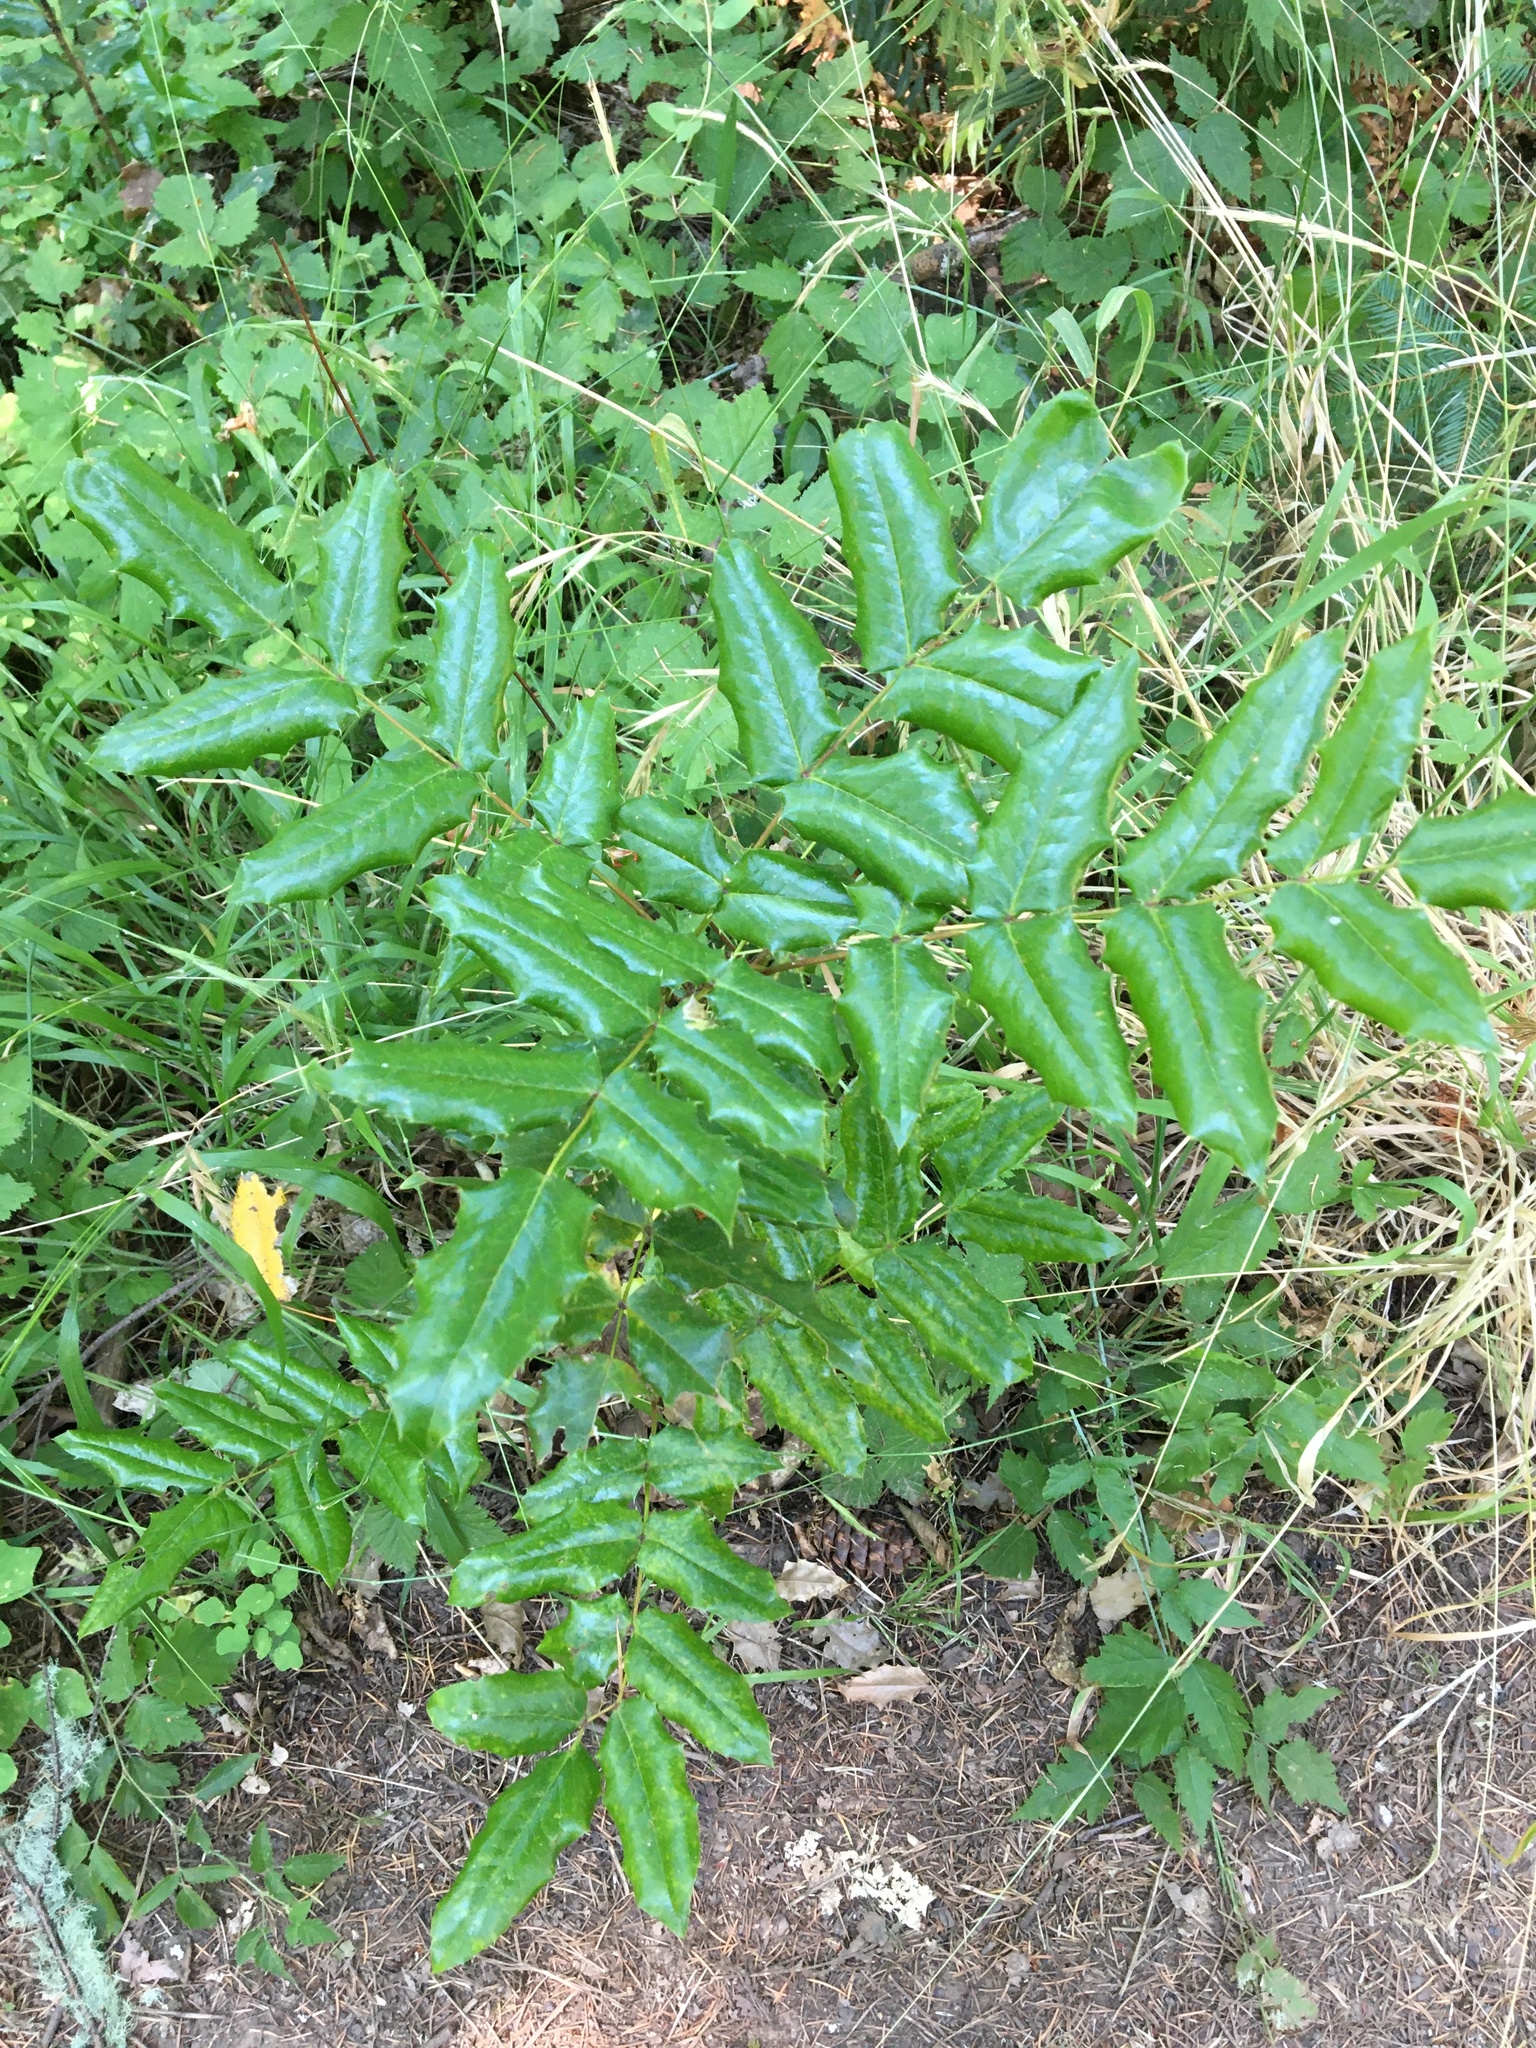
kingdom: Plantae
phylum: Tracheophyta
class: Magnoliopsida
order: Ranunculales
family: Berberidaceae
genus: Mahonia
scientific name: Mahonia aquifolium
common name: Oregon-grape
